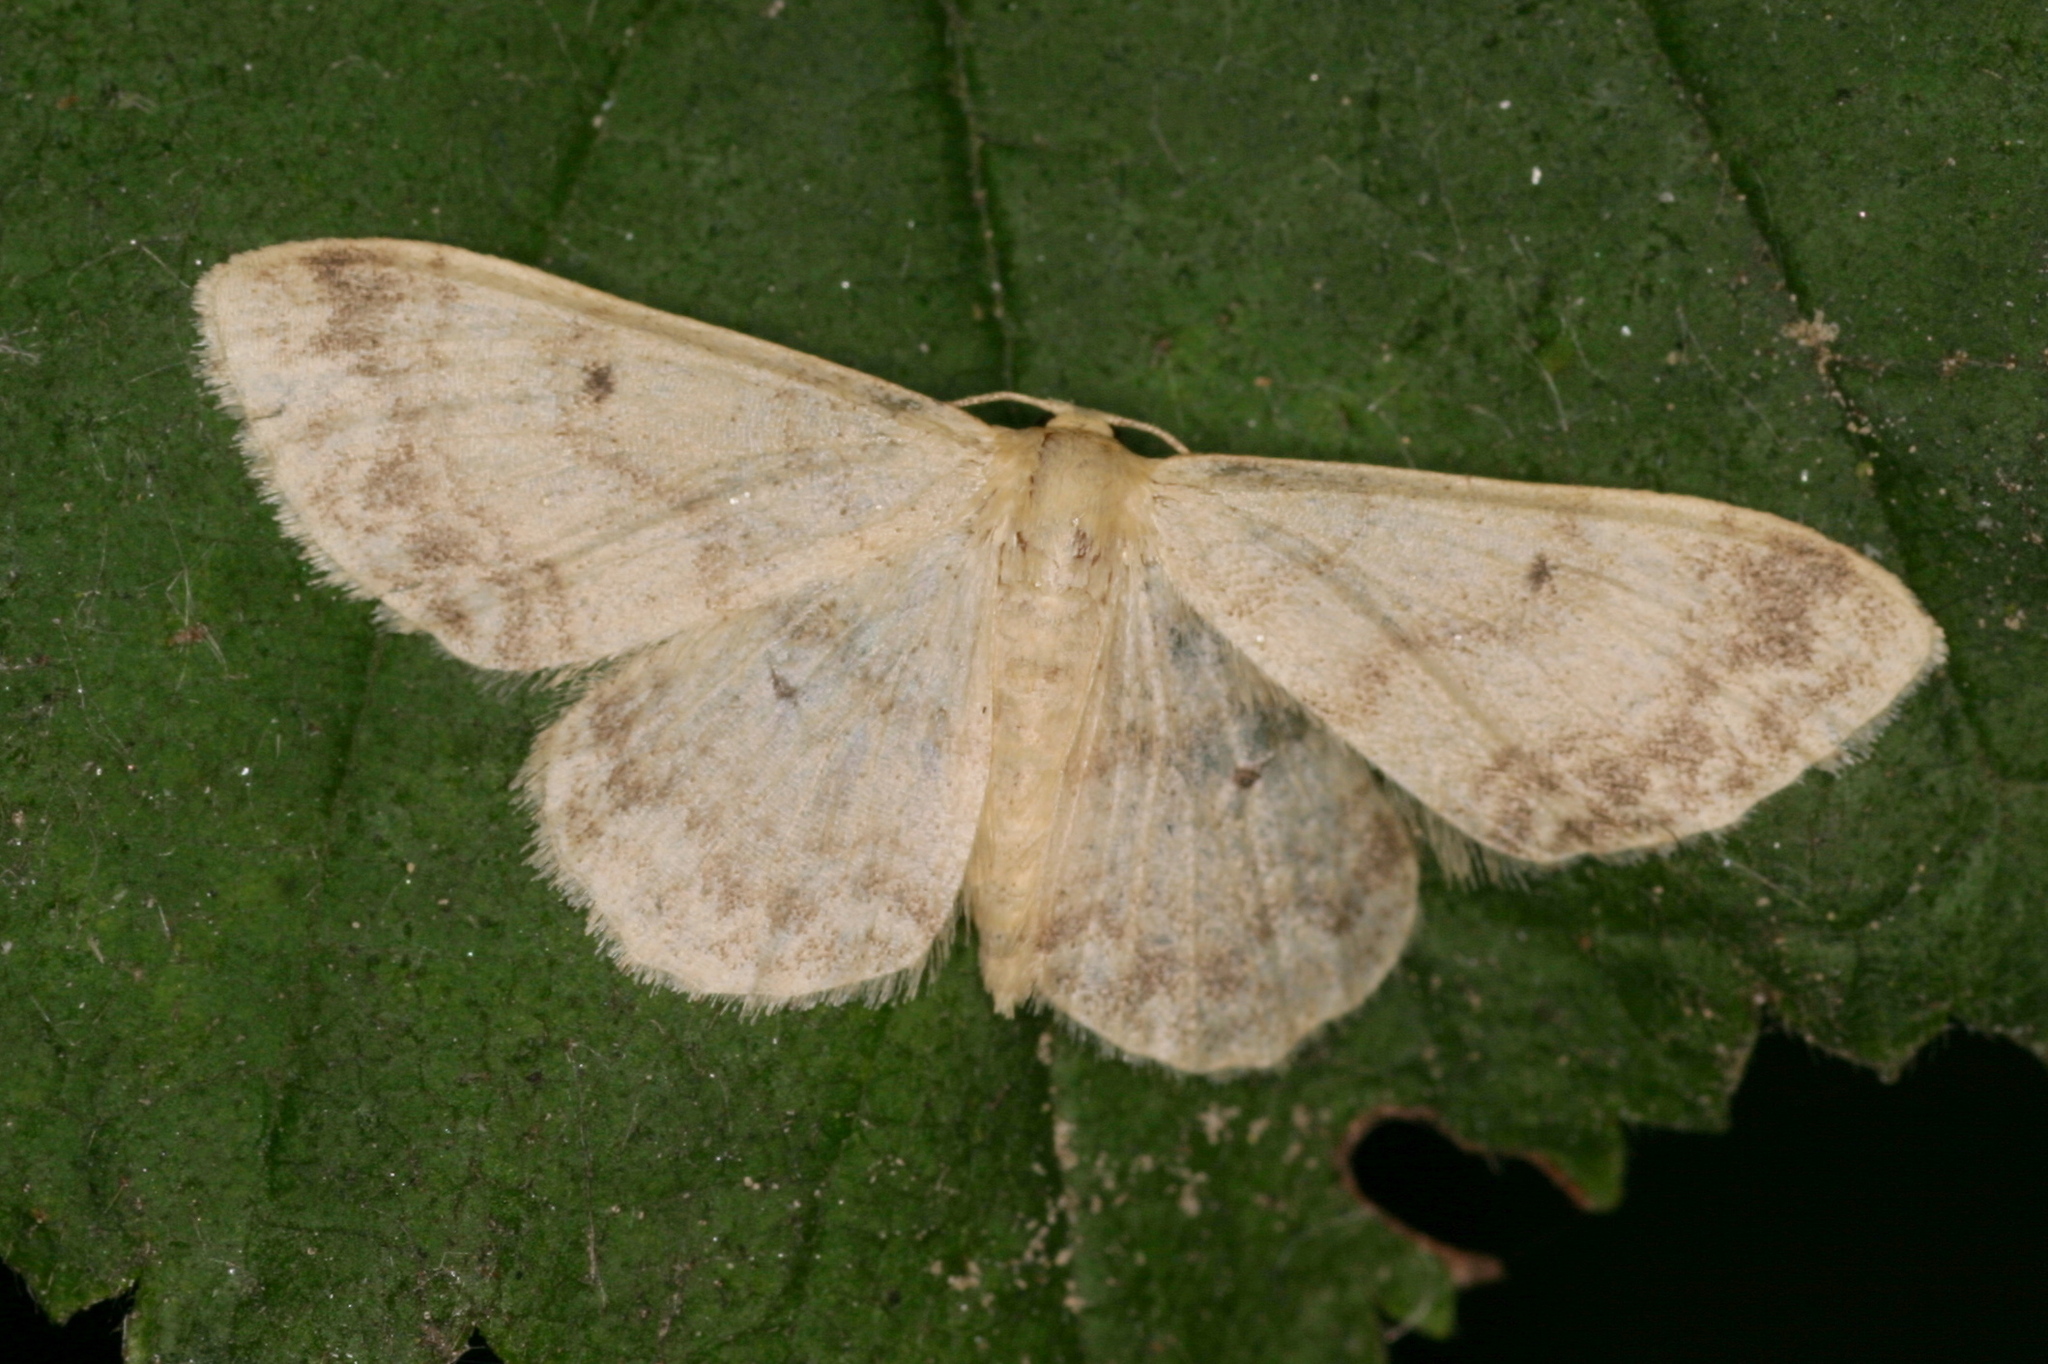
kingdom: Animalia
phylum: Arthropoda
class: Insecta
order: Lepidoptera
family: Geometridae
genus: Idaea
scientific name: Idaea biselata
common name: Small fan-footed wave
